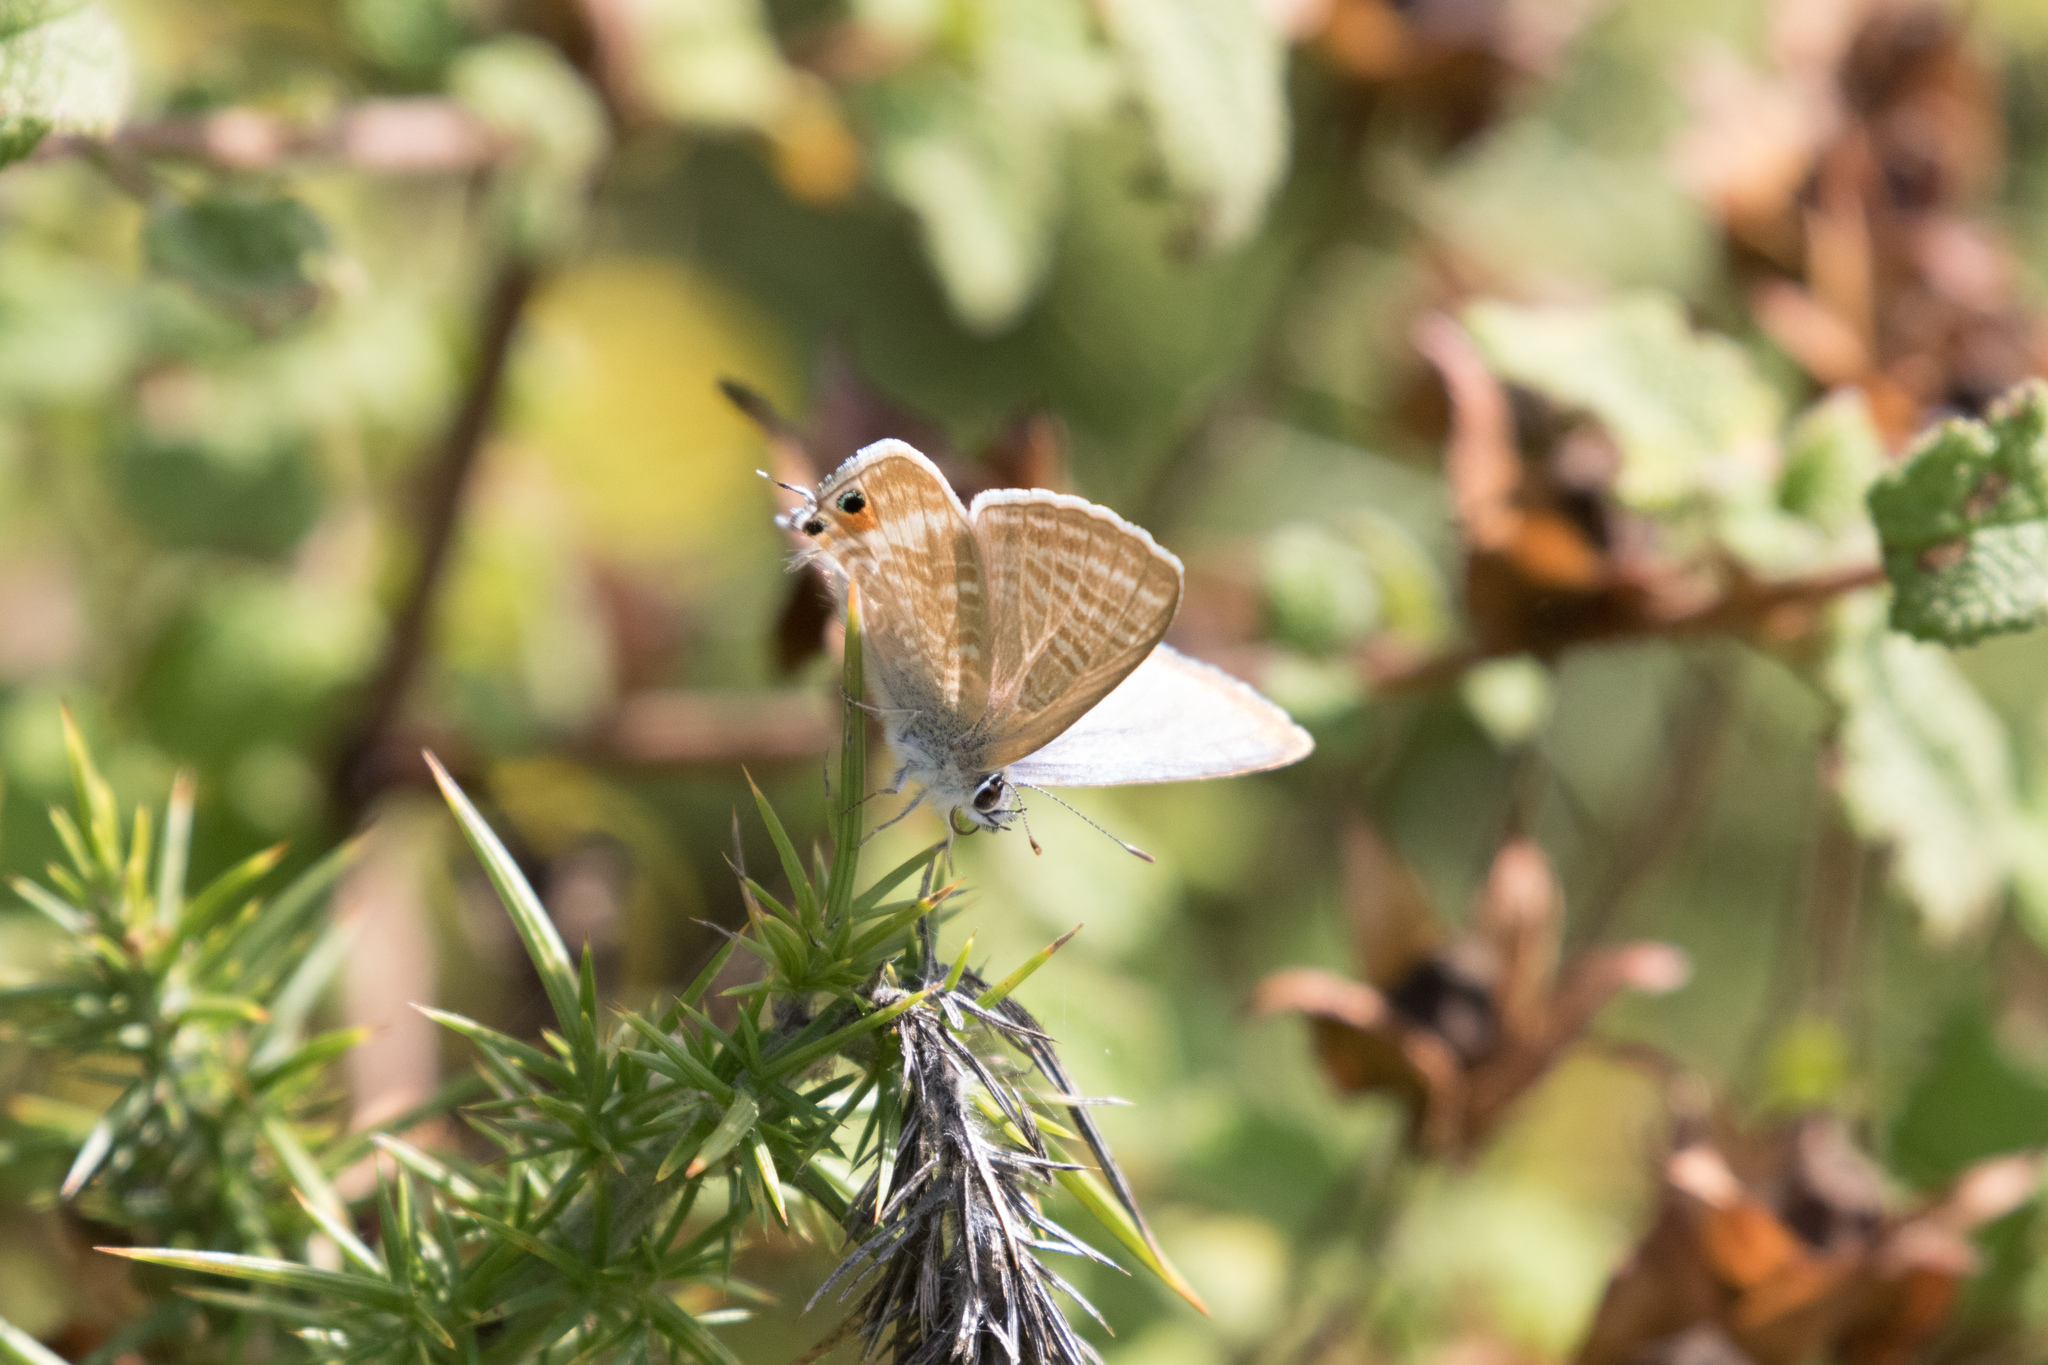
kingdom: Animalia
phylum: Arthropoda
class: Insecta
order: Lepidoptera
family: Lycaenidae
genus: Lampides
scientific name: Lampides boeticus
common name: Long-tailed blue
